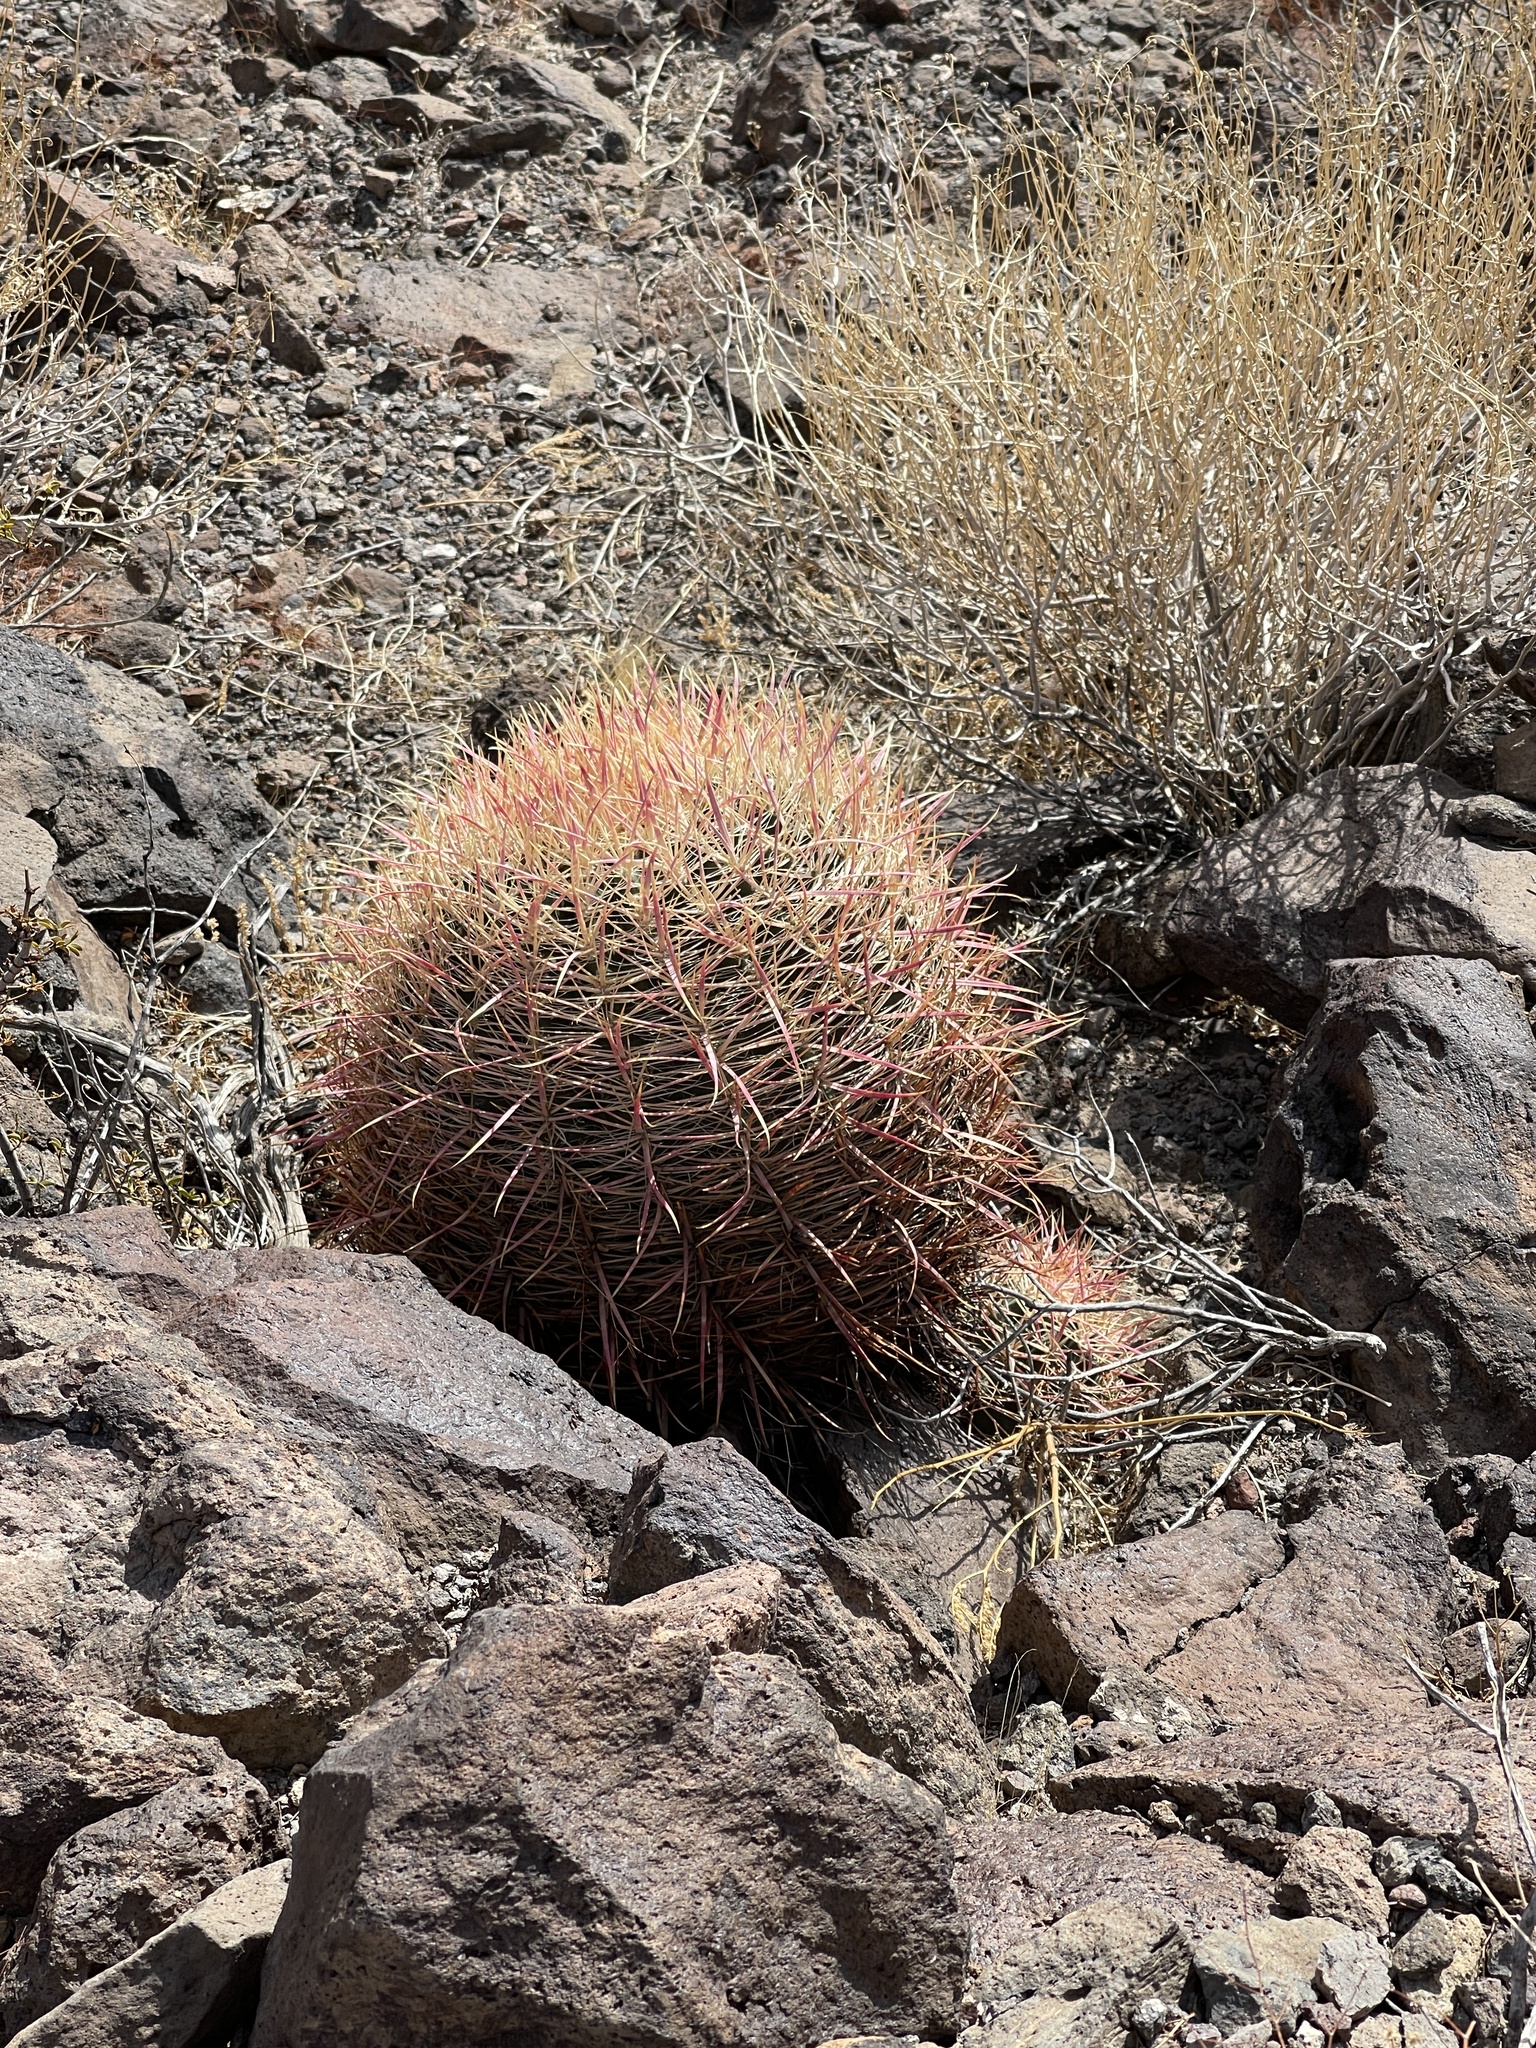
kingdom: Plantae
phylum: Tracheophyta
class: Magnoliopsida
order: Caryophyllales
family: Cactaceae
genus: Ferocactus
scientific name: Ferocactus cylindraceus
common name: California barrel cactus
